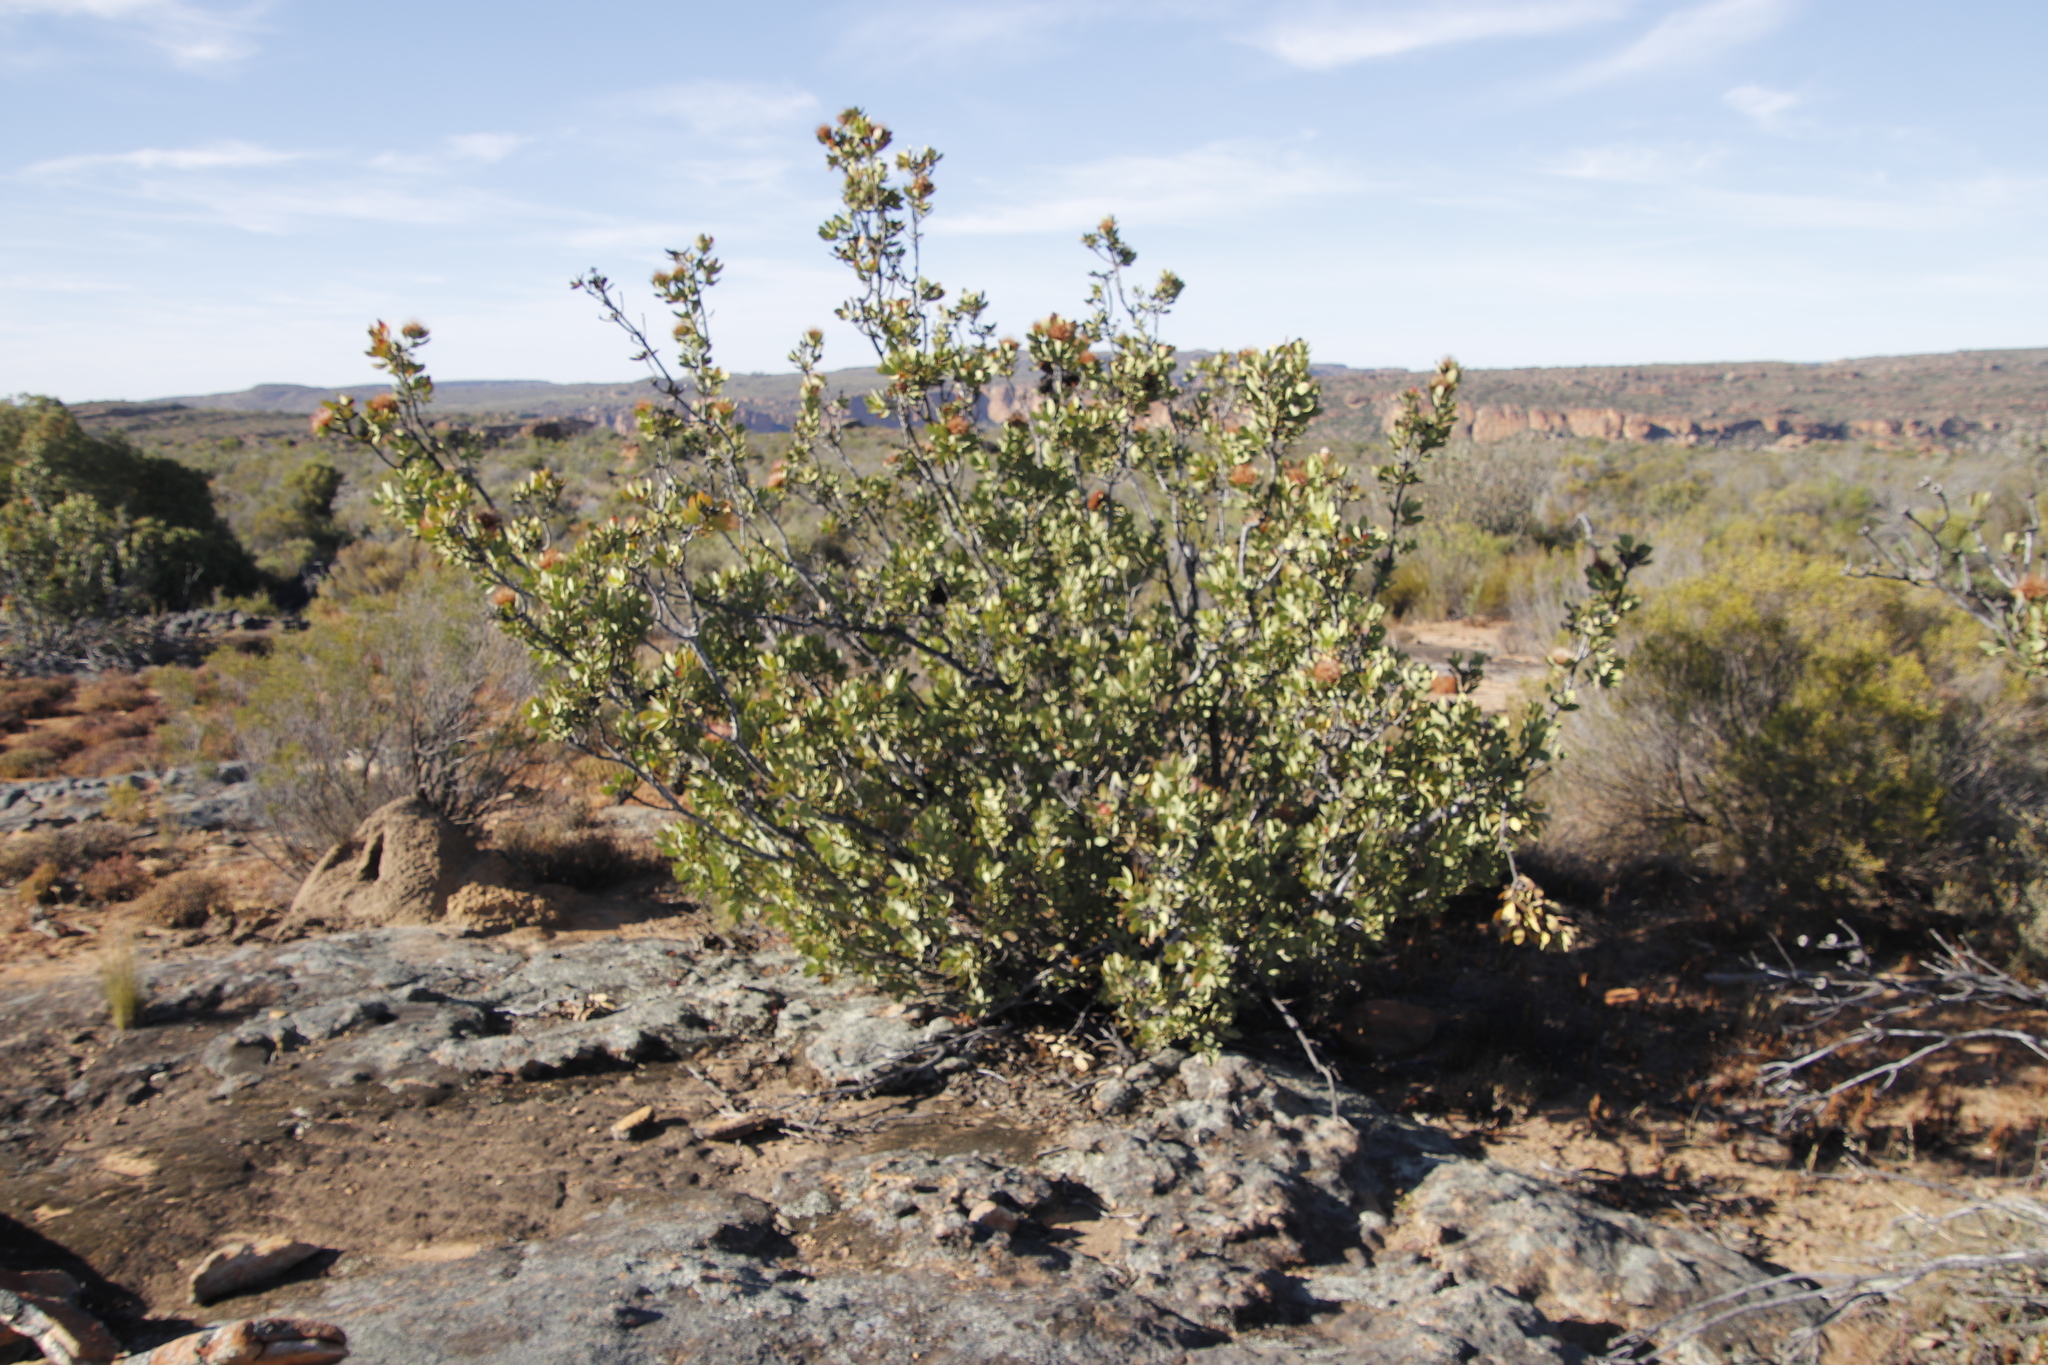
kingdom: Plantae
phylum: Tracheophyta
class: Magnoliopsida
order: Proteales
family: Proteaceae
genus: Protea
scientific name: Protea glabra
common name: Chestnut sugarbush
